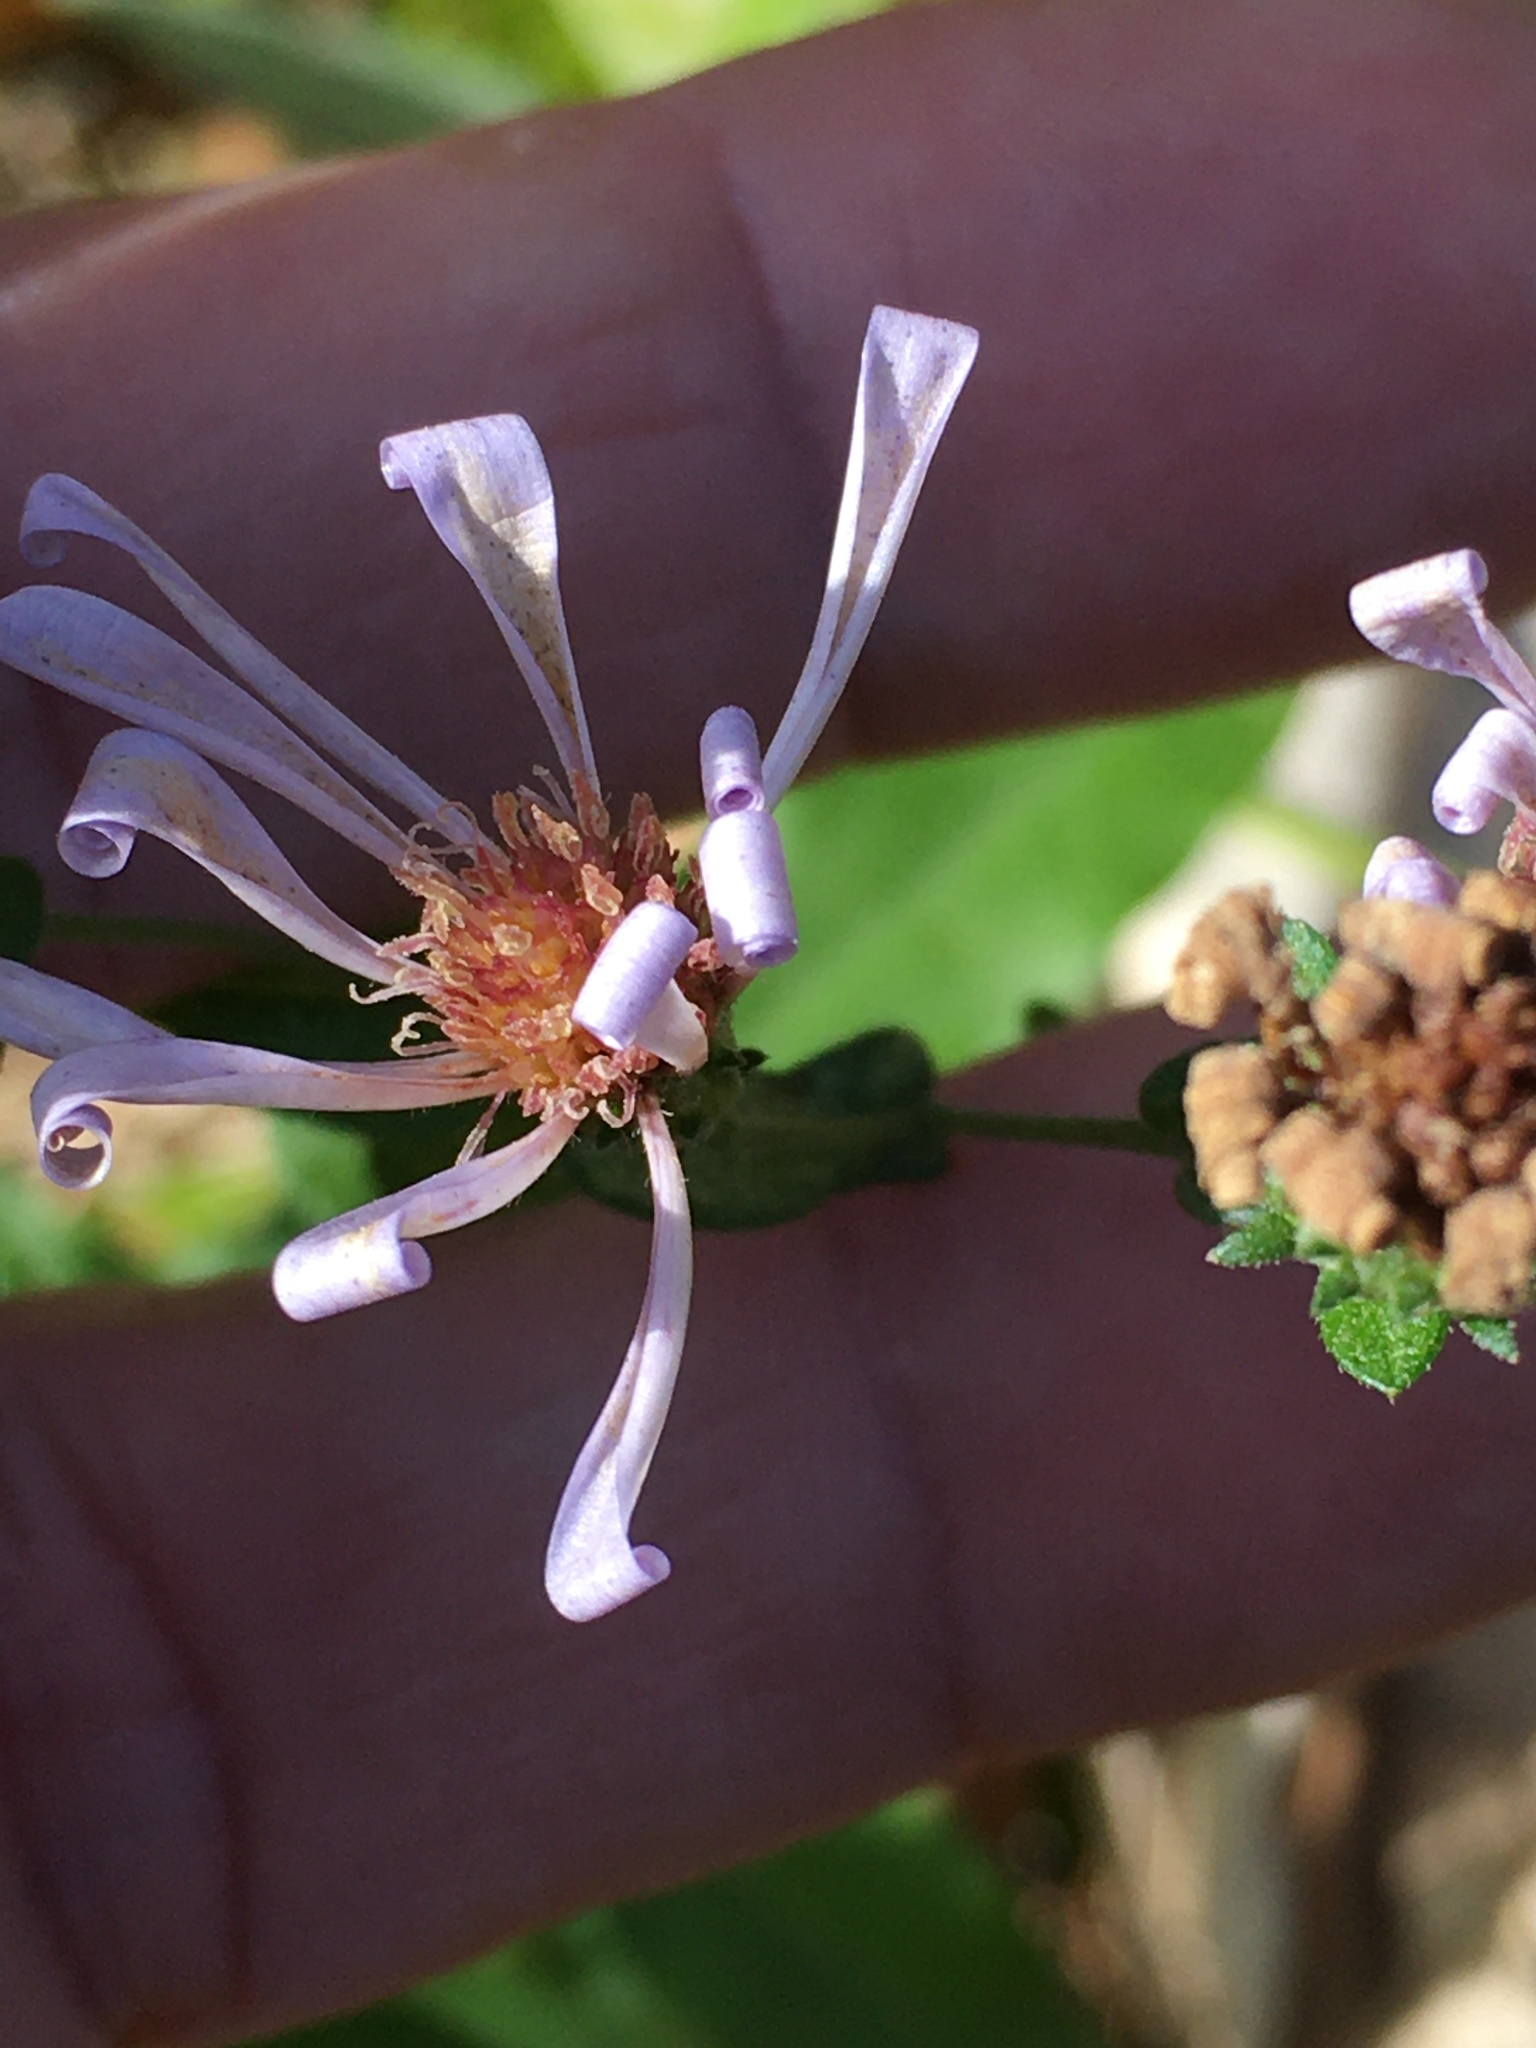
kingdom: Plantae
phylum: Tracheophyta
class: Magnoliopsida
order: Asterales
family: Asteraceae
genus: Symphyotrichum
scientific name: Symphyotrichum patens
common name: Late purple aster
